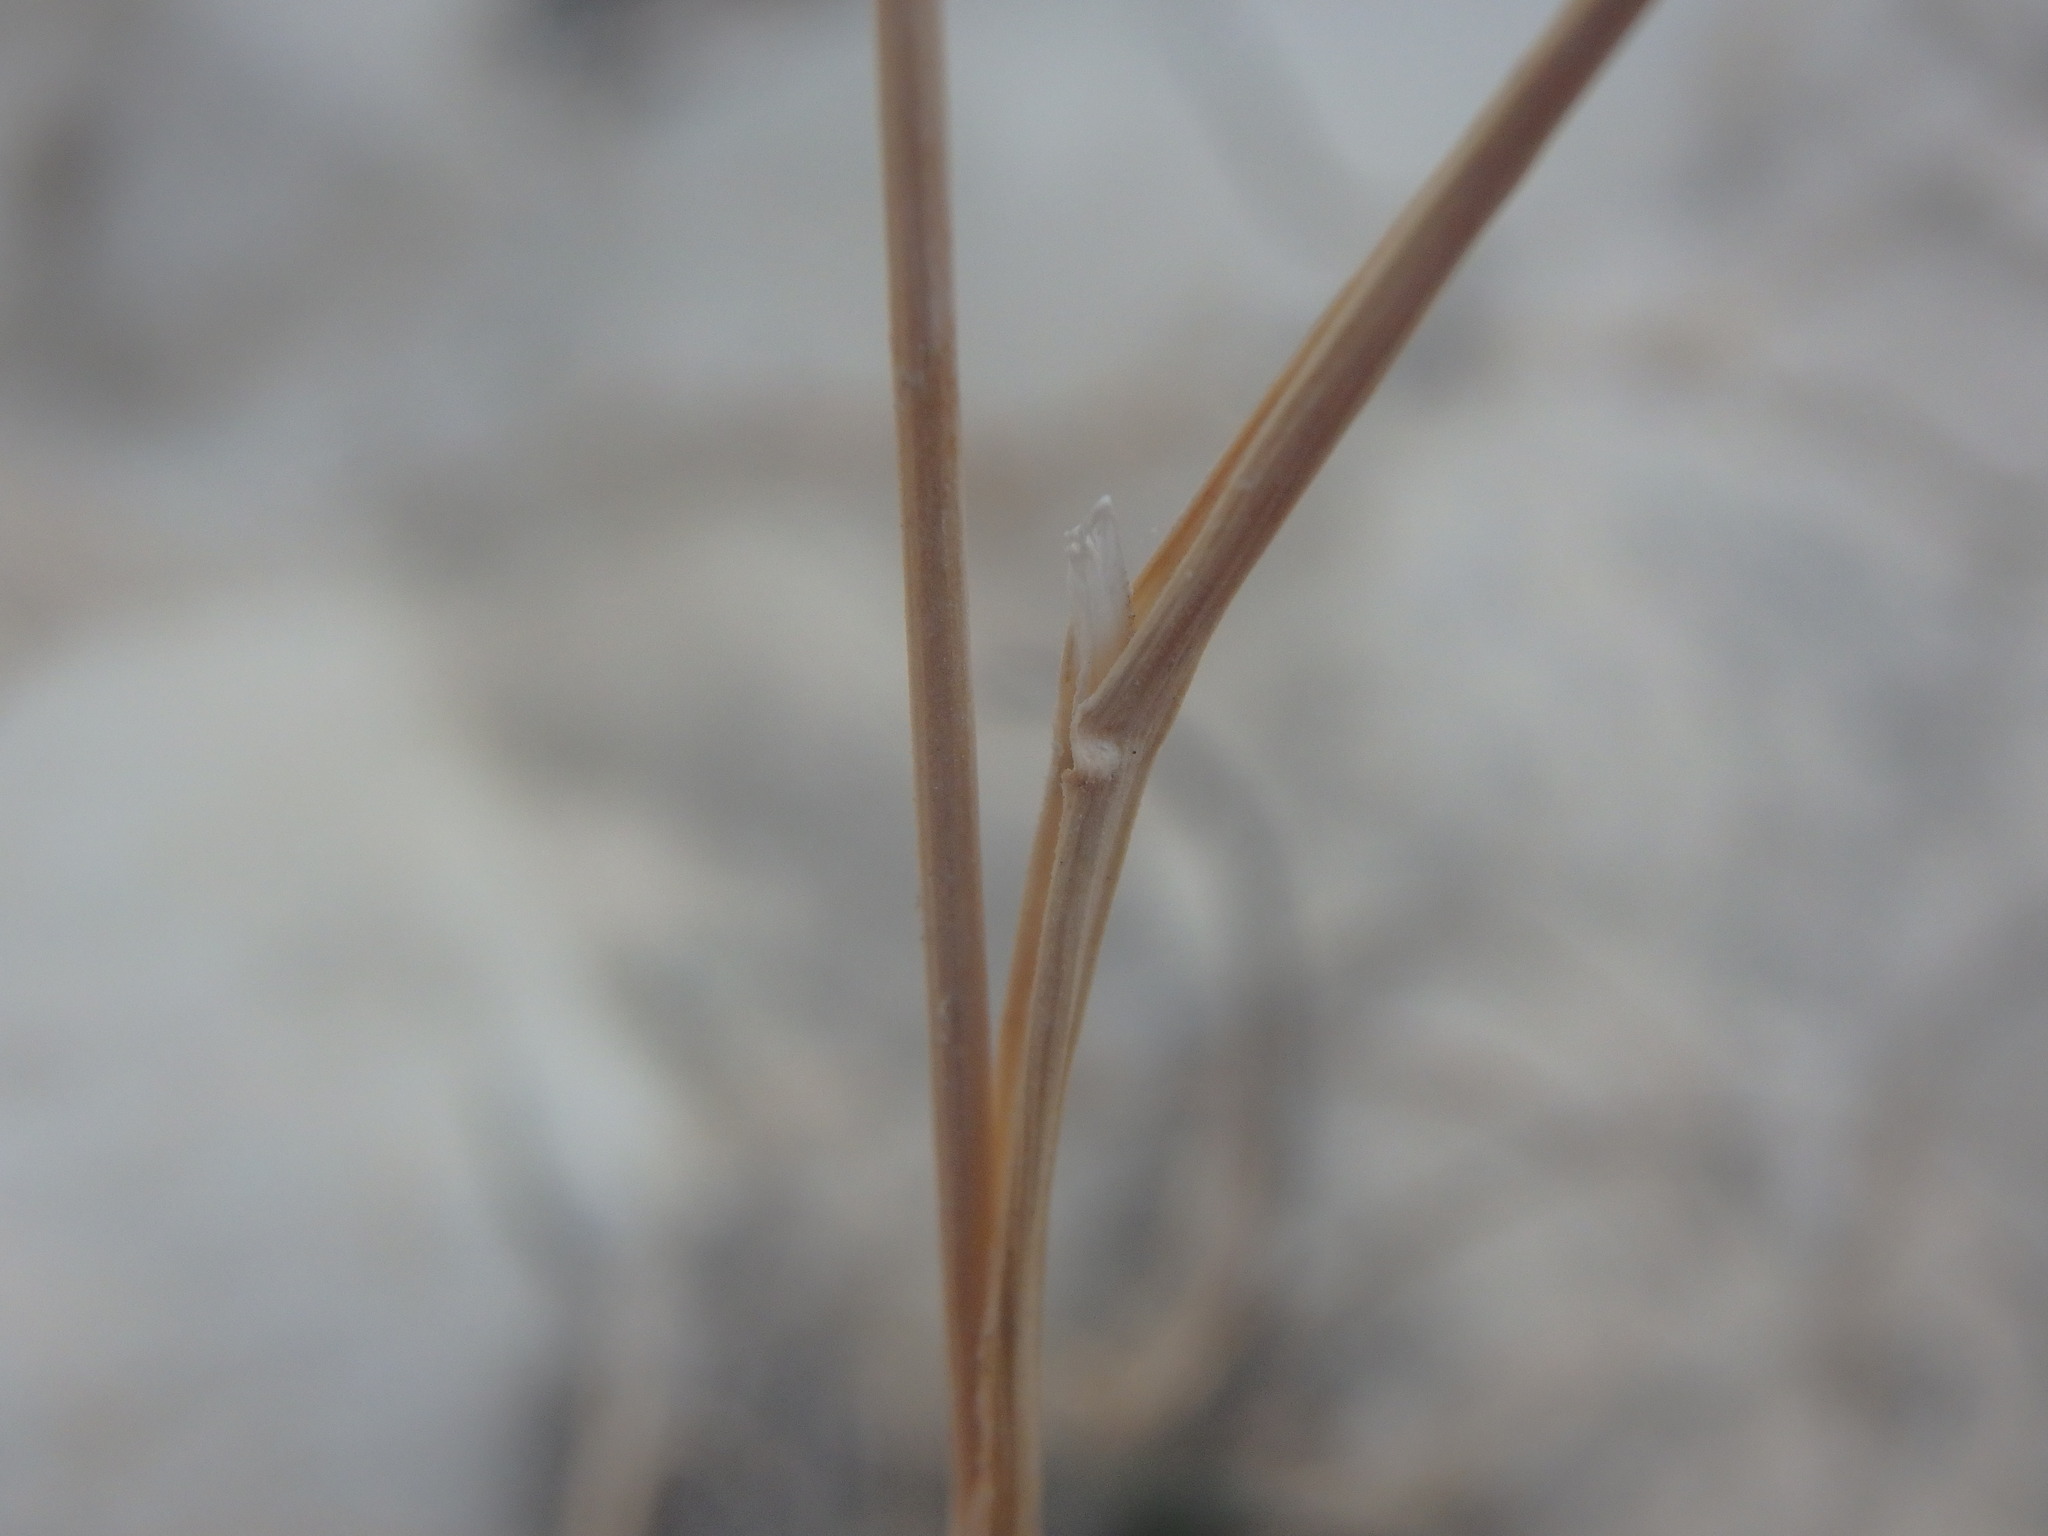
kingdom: Plantae
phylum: Tracheophyta
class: Liliopsida
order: Poales
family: Poaceae
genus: Dactylis
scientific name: Dactylis glomerata
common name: Orchardgrass
